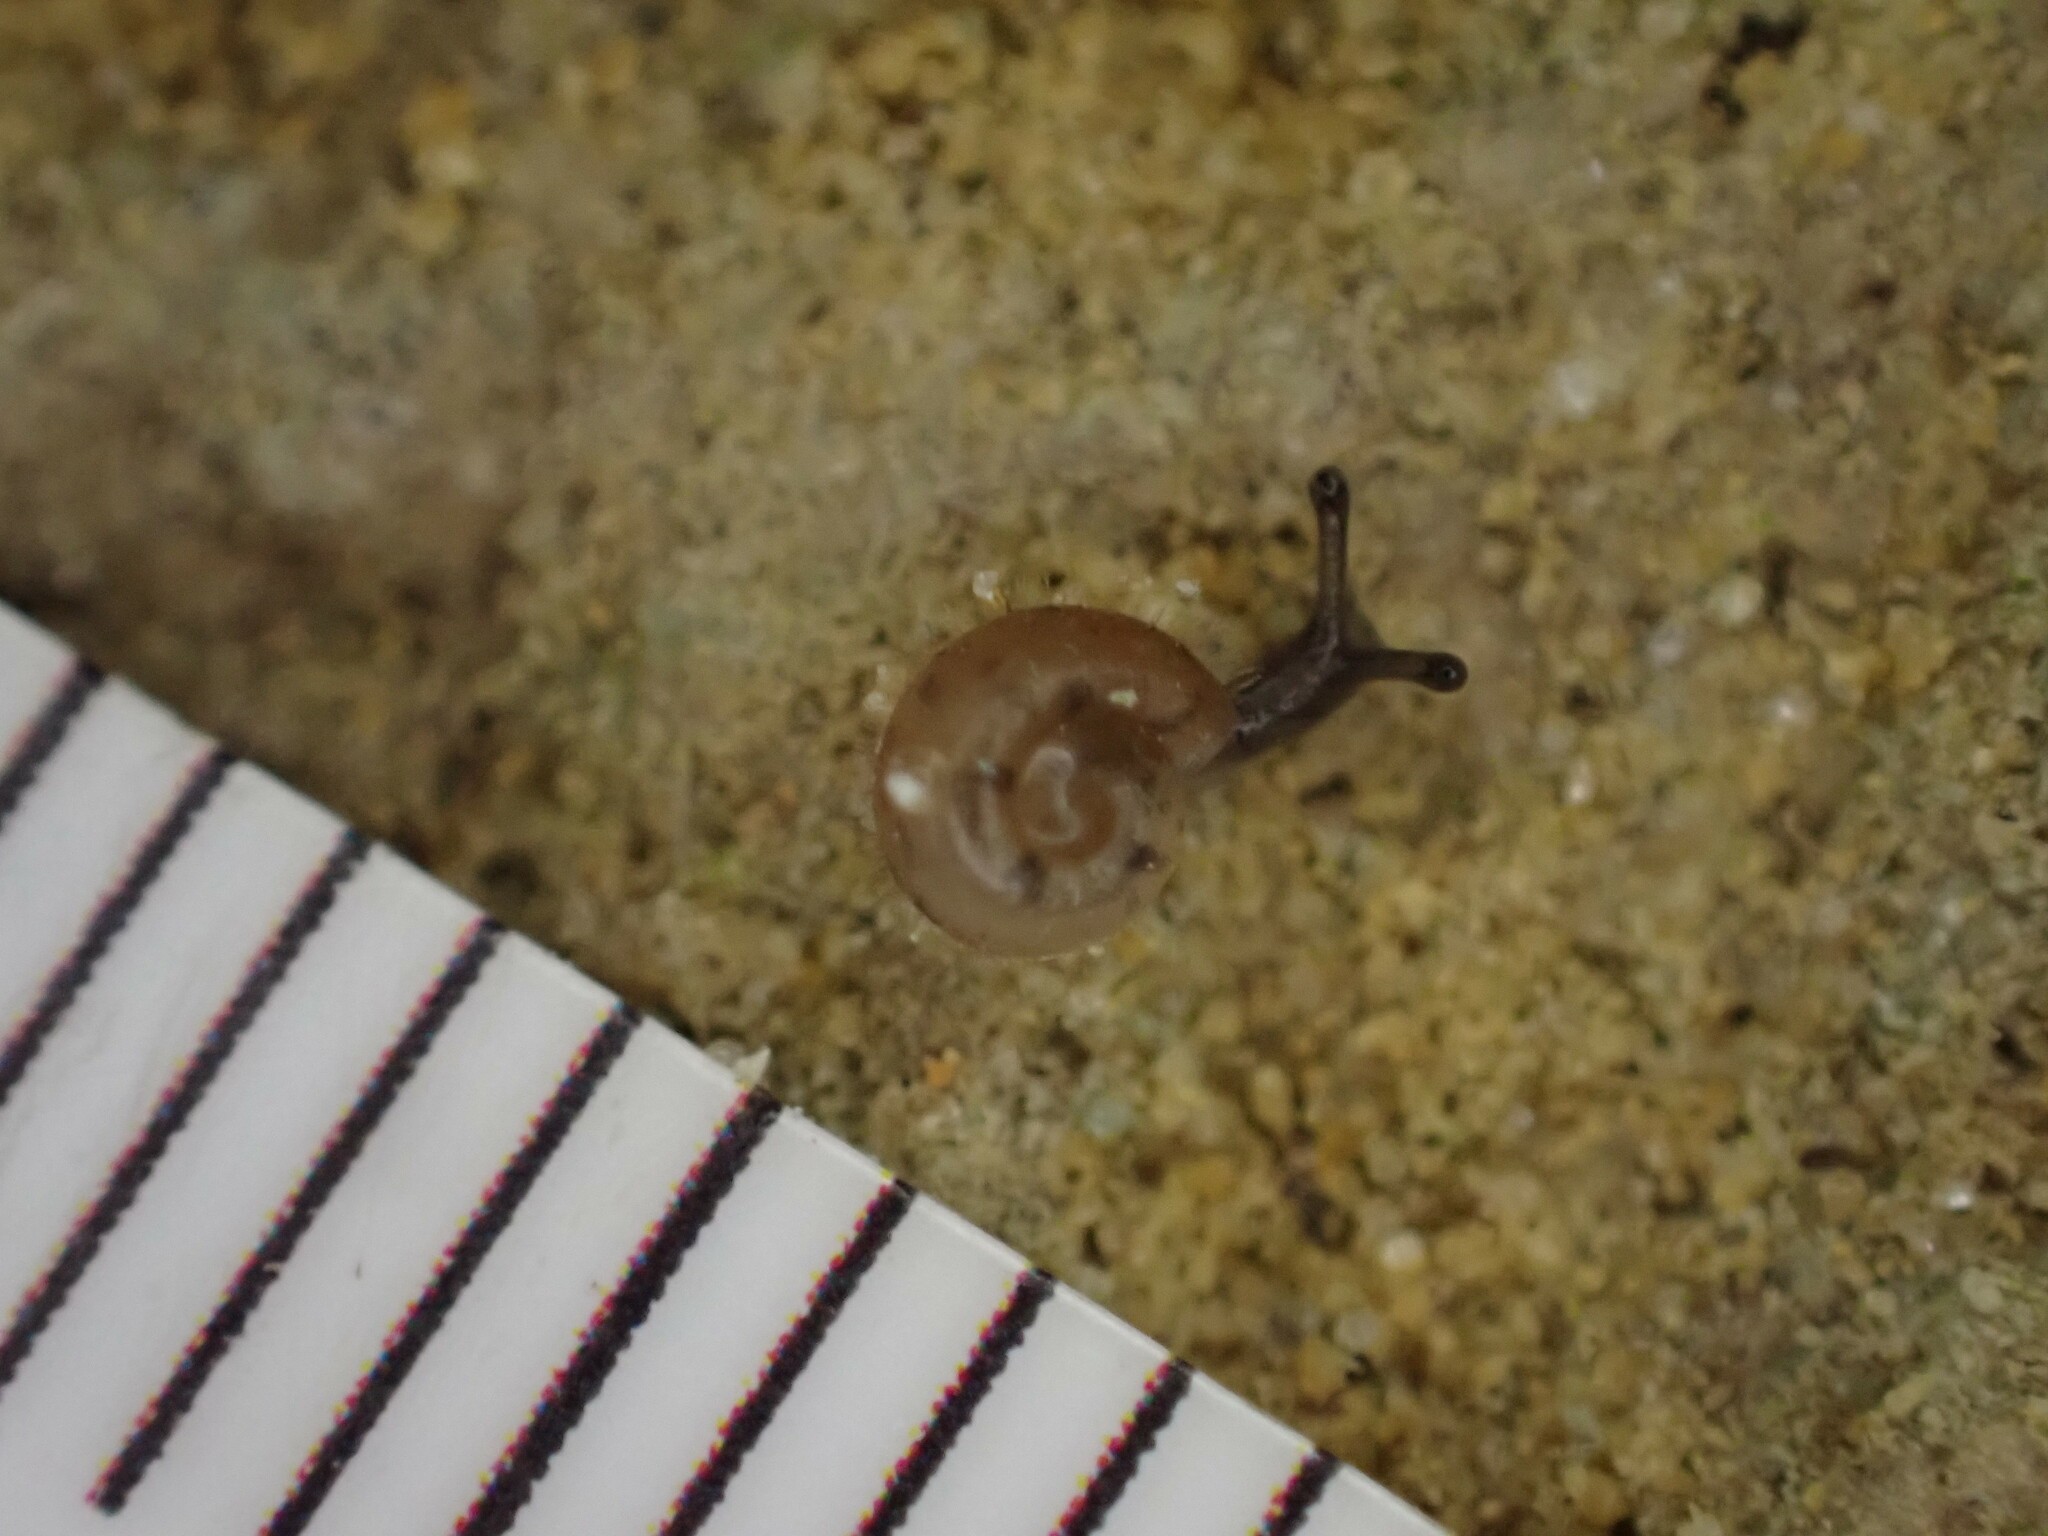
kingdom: Animalia
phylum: Mollusca
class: Gastropoda
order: Stylommatophora
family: Helicodontidae
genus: Helicodonta
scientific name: Helicodonta obvoluta
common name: Cheese snail
